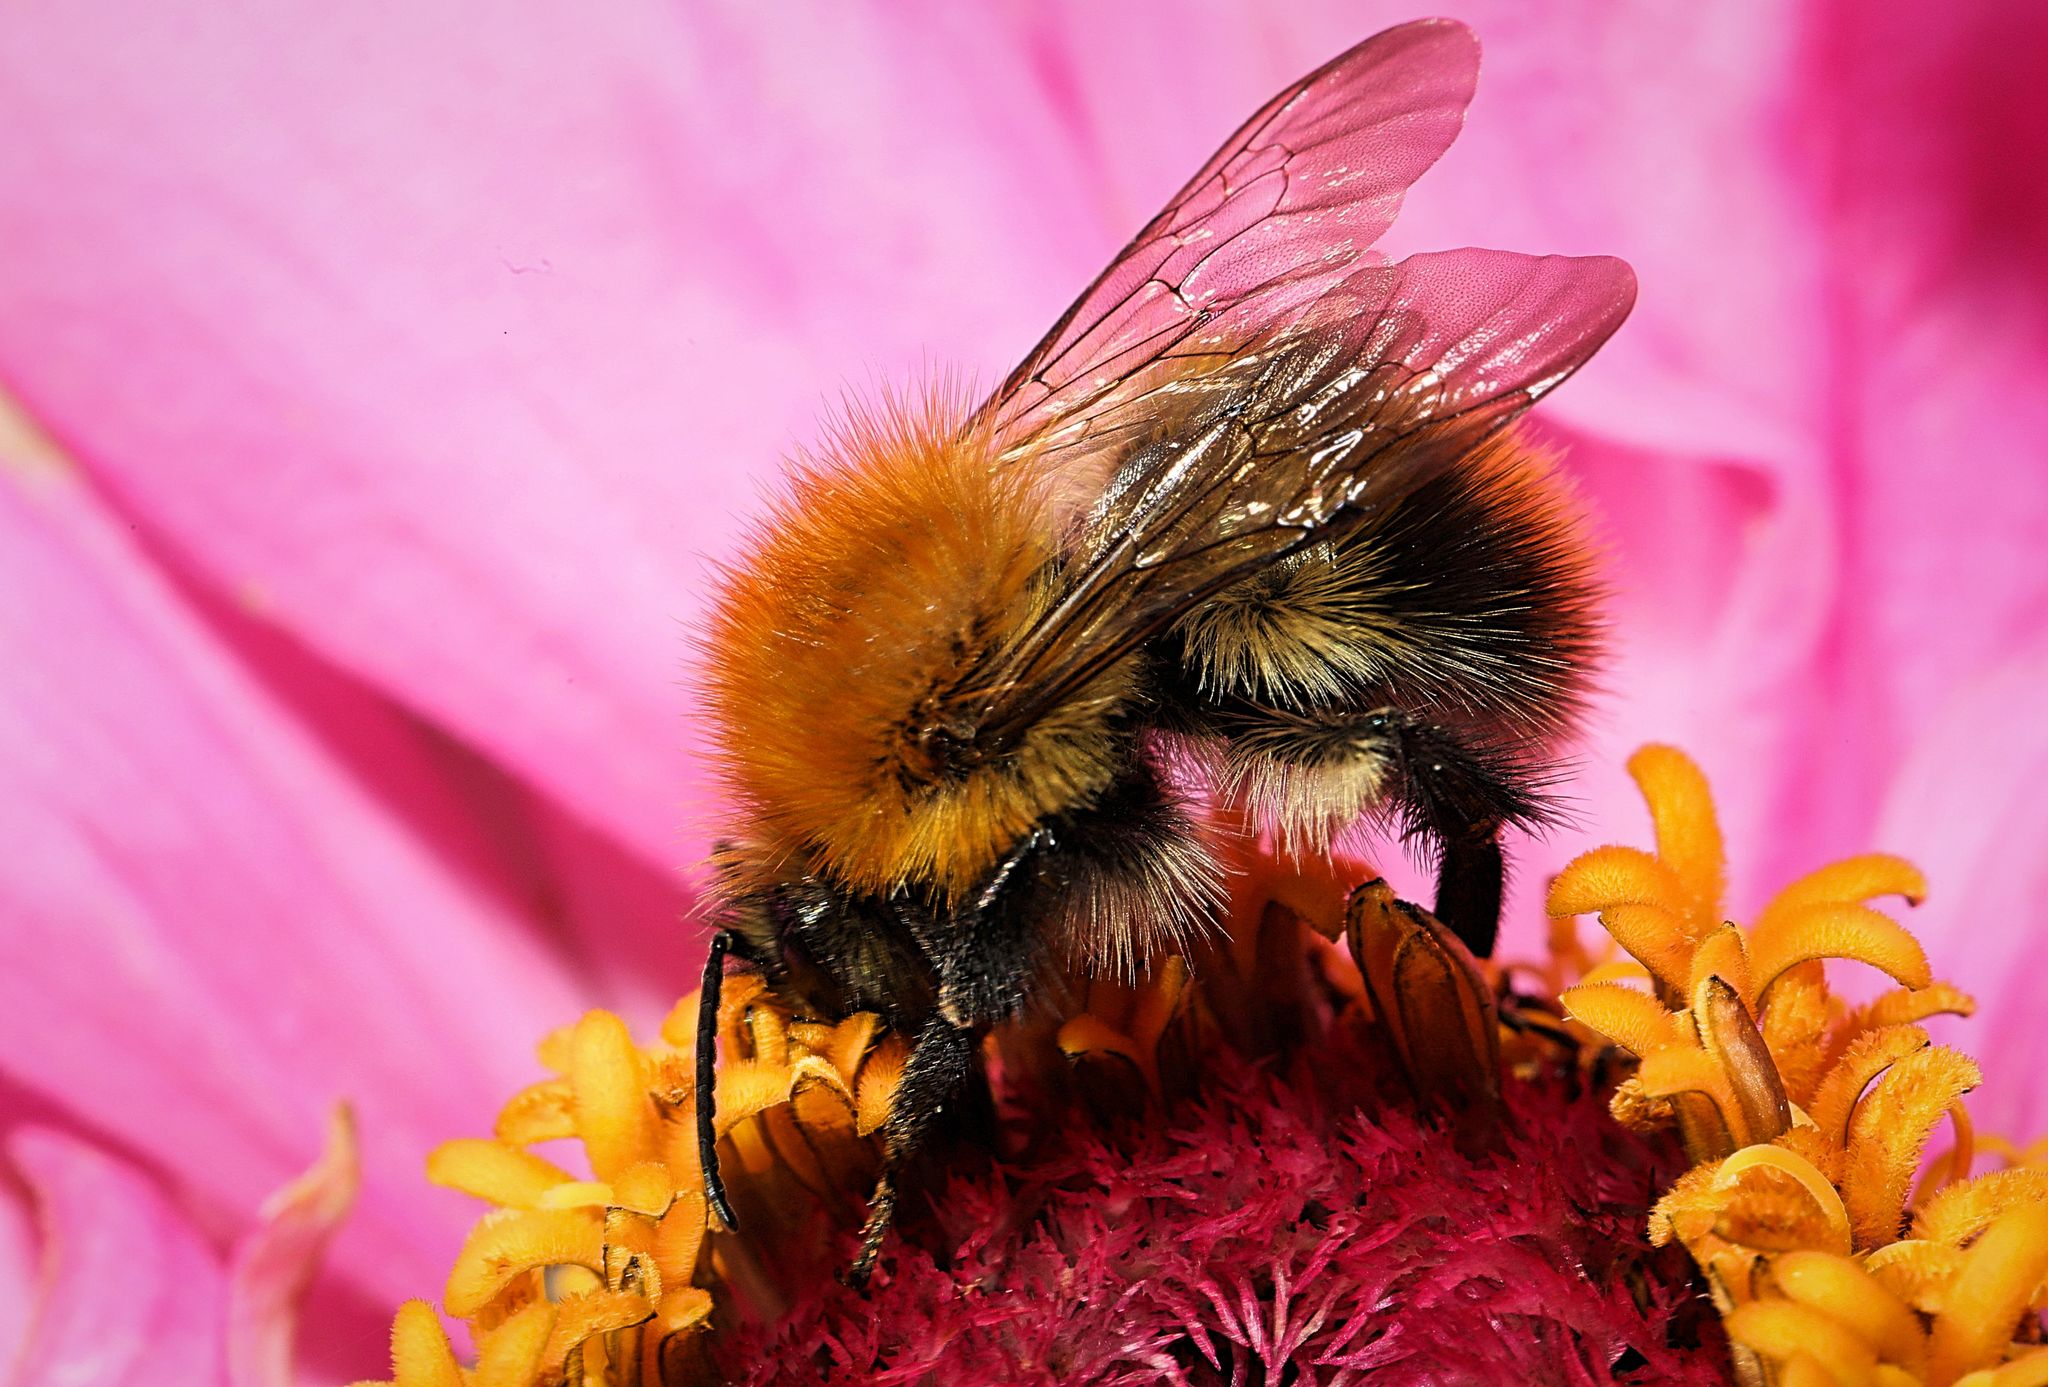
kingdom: Animalia
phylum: Arthropoda
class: Insecta
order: Hymenoptera
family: Apidae
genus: Bombus
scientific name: Bombus pascuorum
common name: Common carder bee
